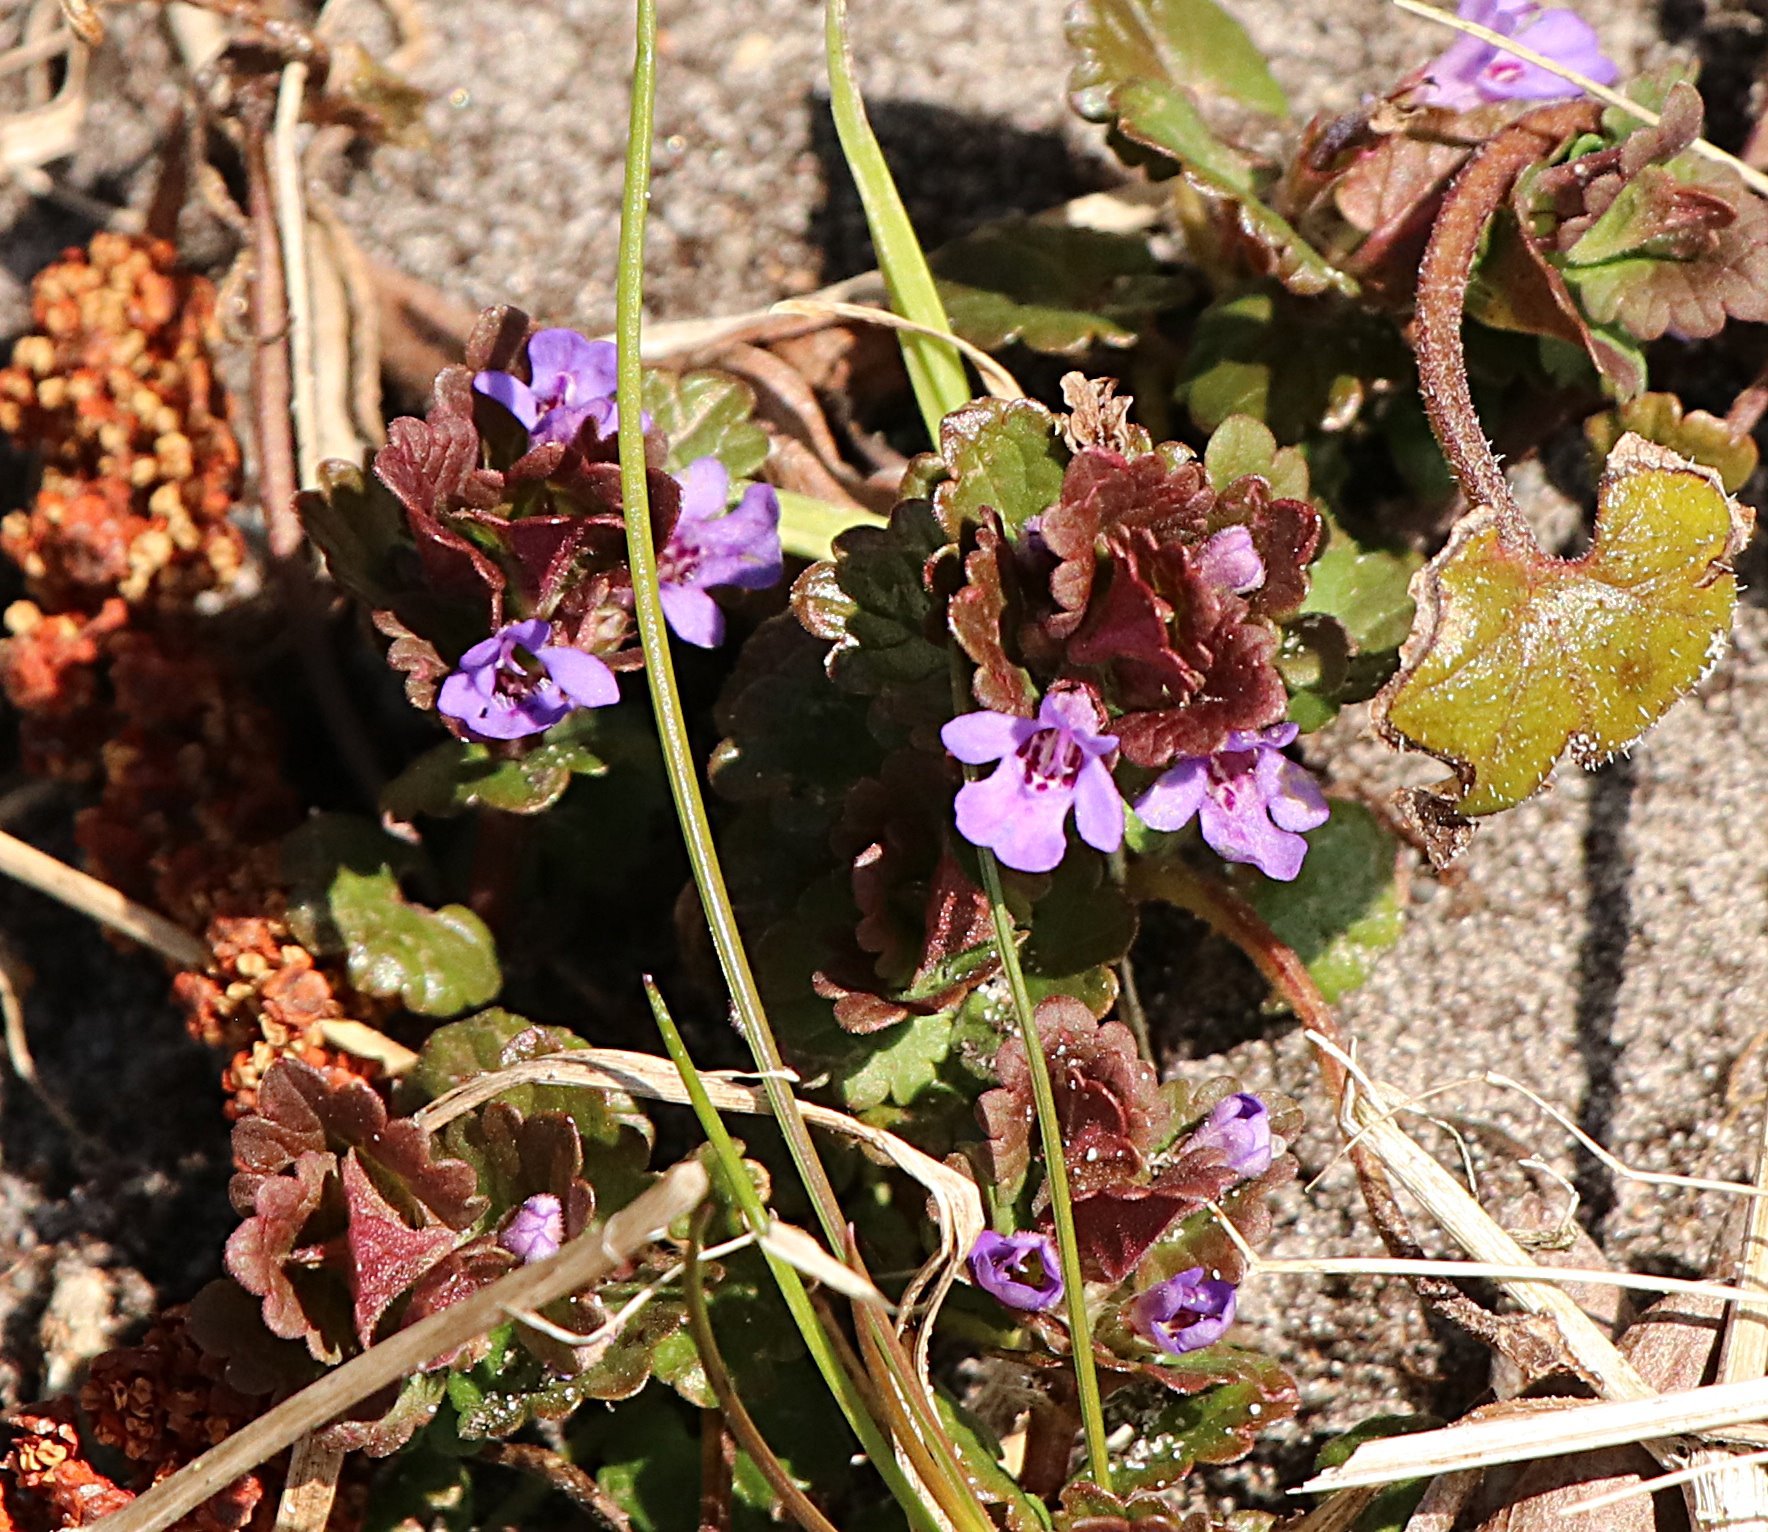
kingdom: Plantae
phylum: Tracheophyta
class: Magnoliopsida
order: Lamiales
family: Lamiaceae
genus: Glechoma
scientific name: Glechoma hederacea
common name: Ground ivy
